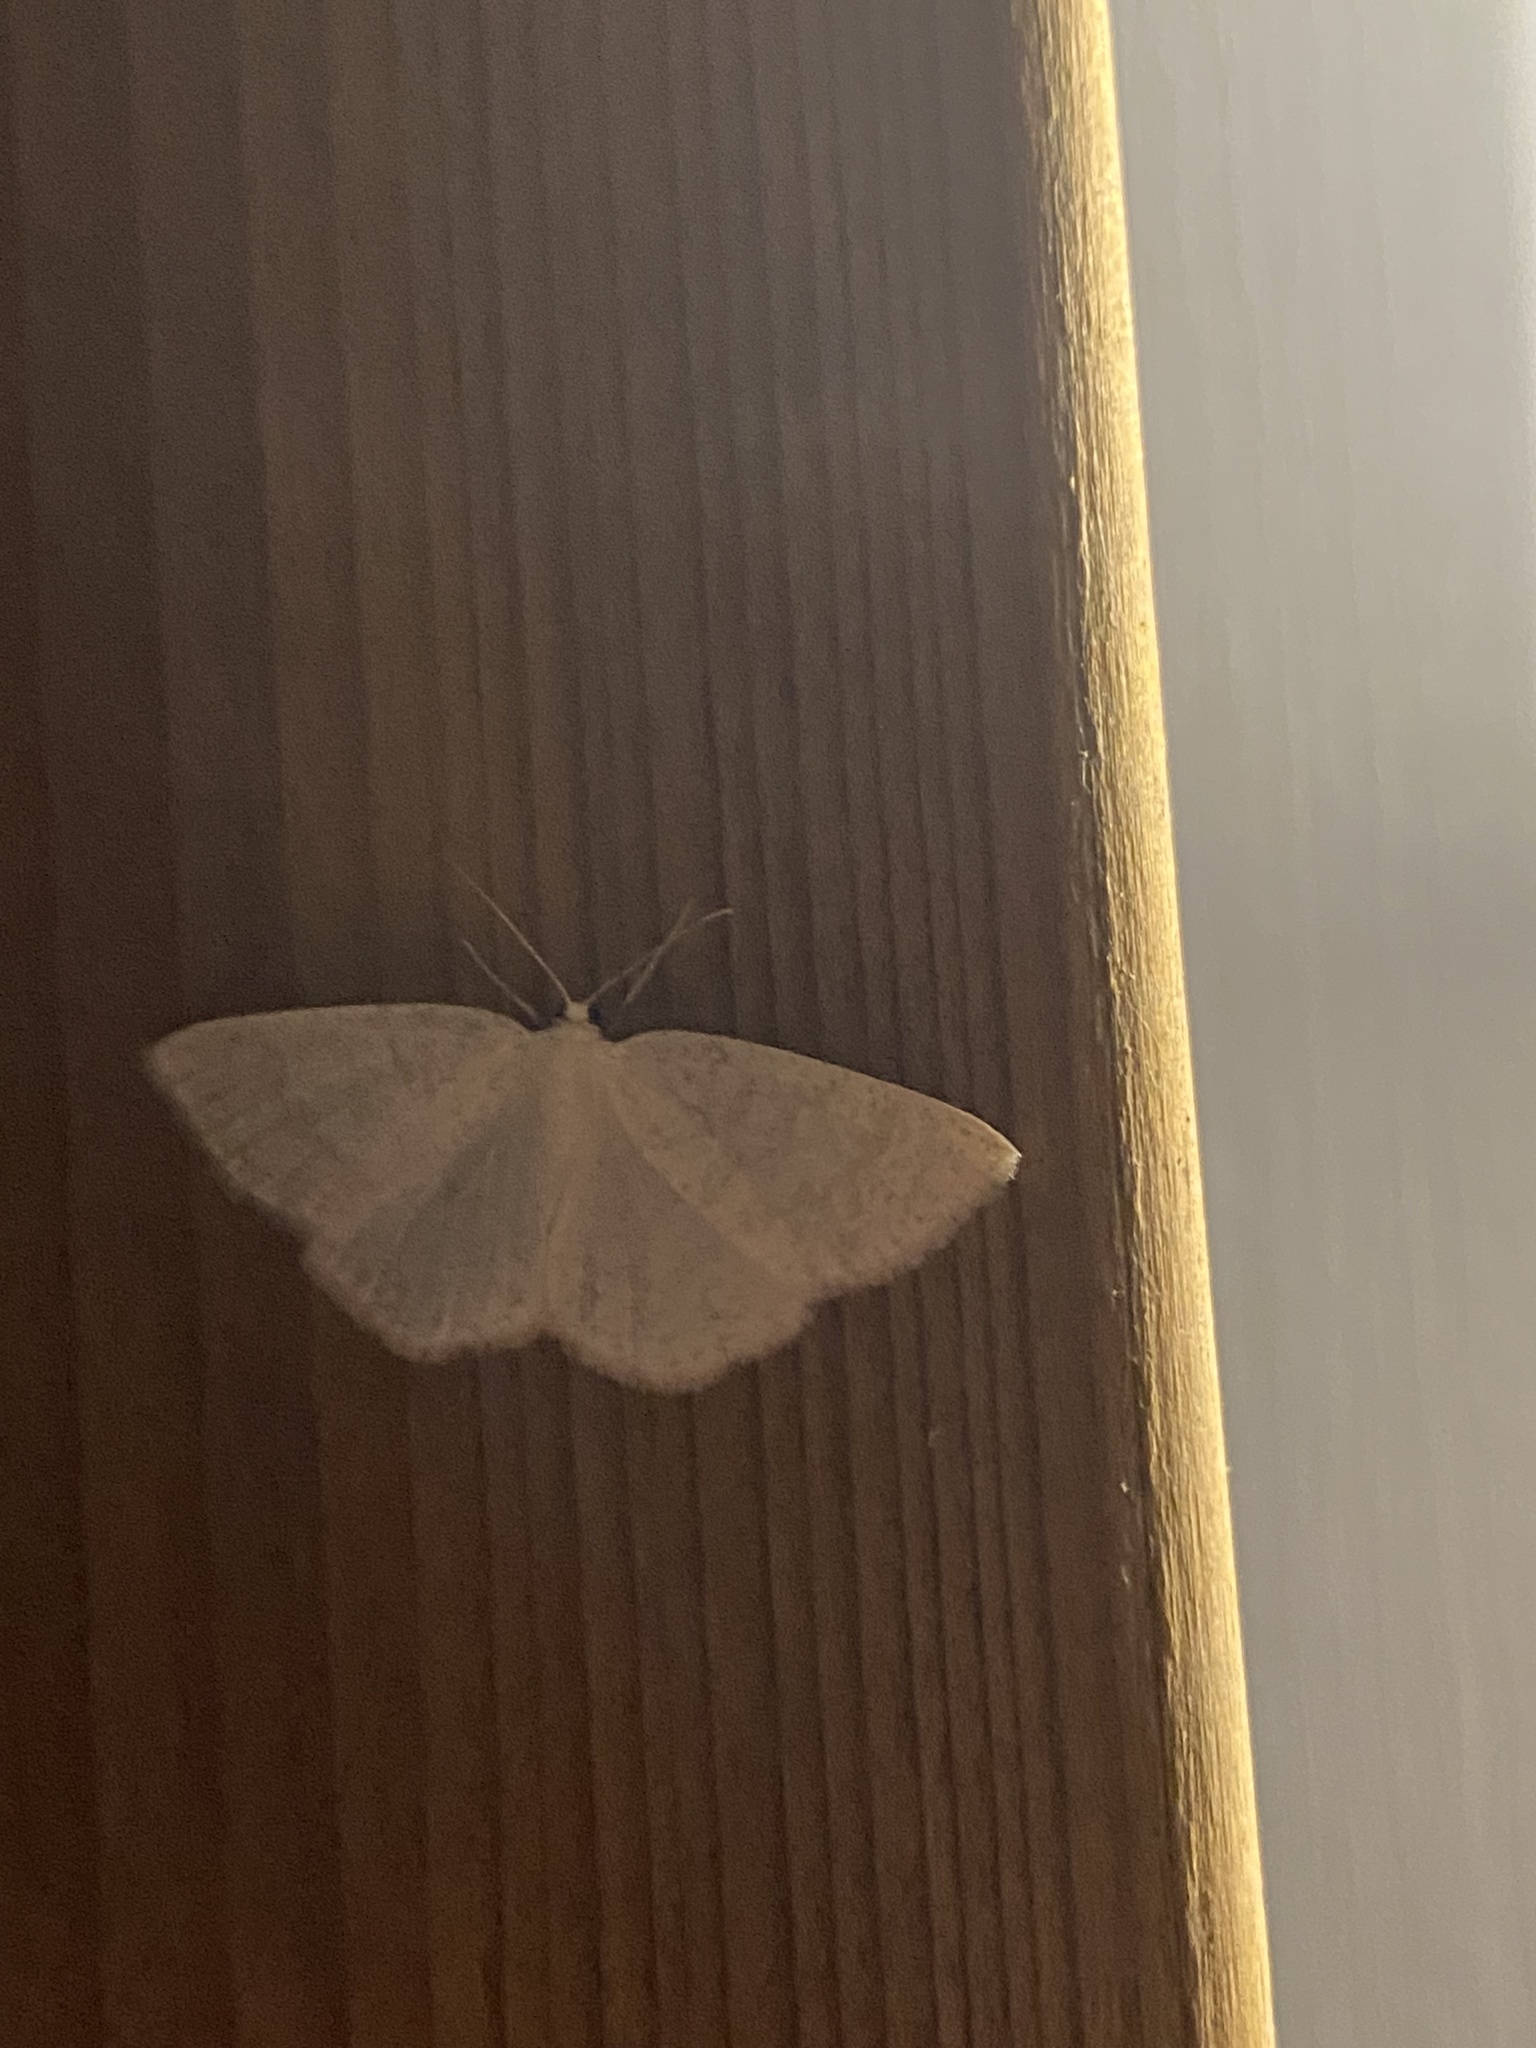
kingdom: Animalia
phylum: Arthropoda
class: Insecta
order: Lepidoptera
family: Geometridae
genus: Cabera
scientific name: Cabera exanthemata
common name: Common wave
